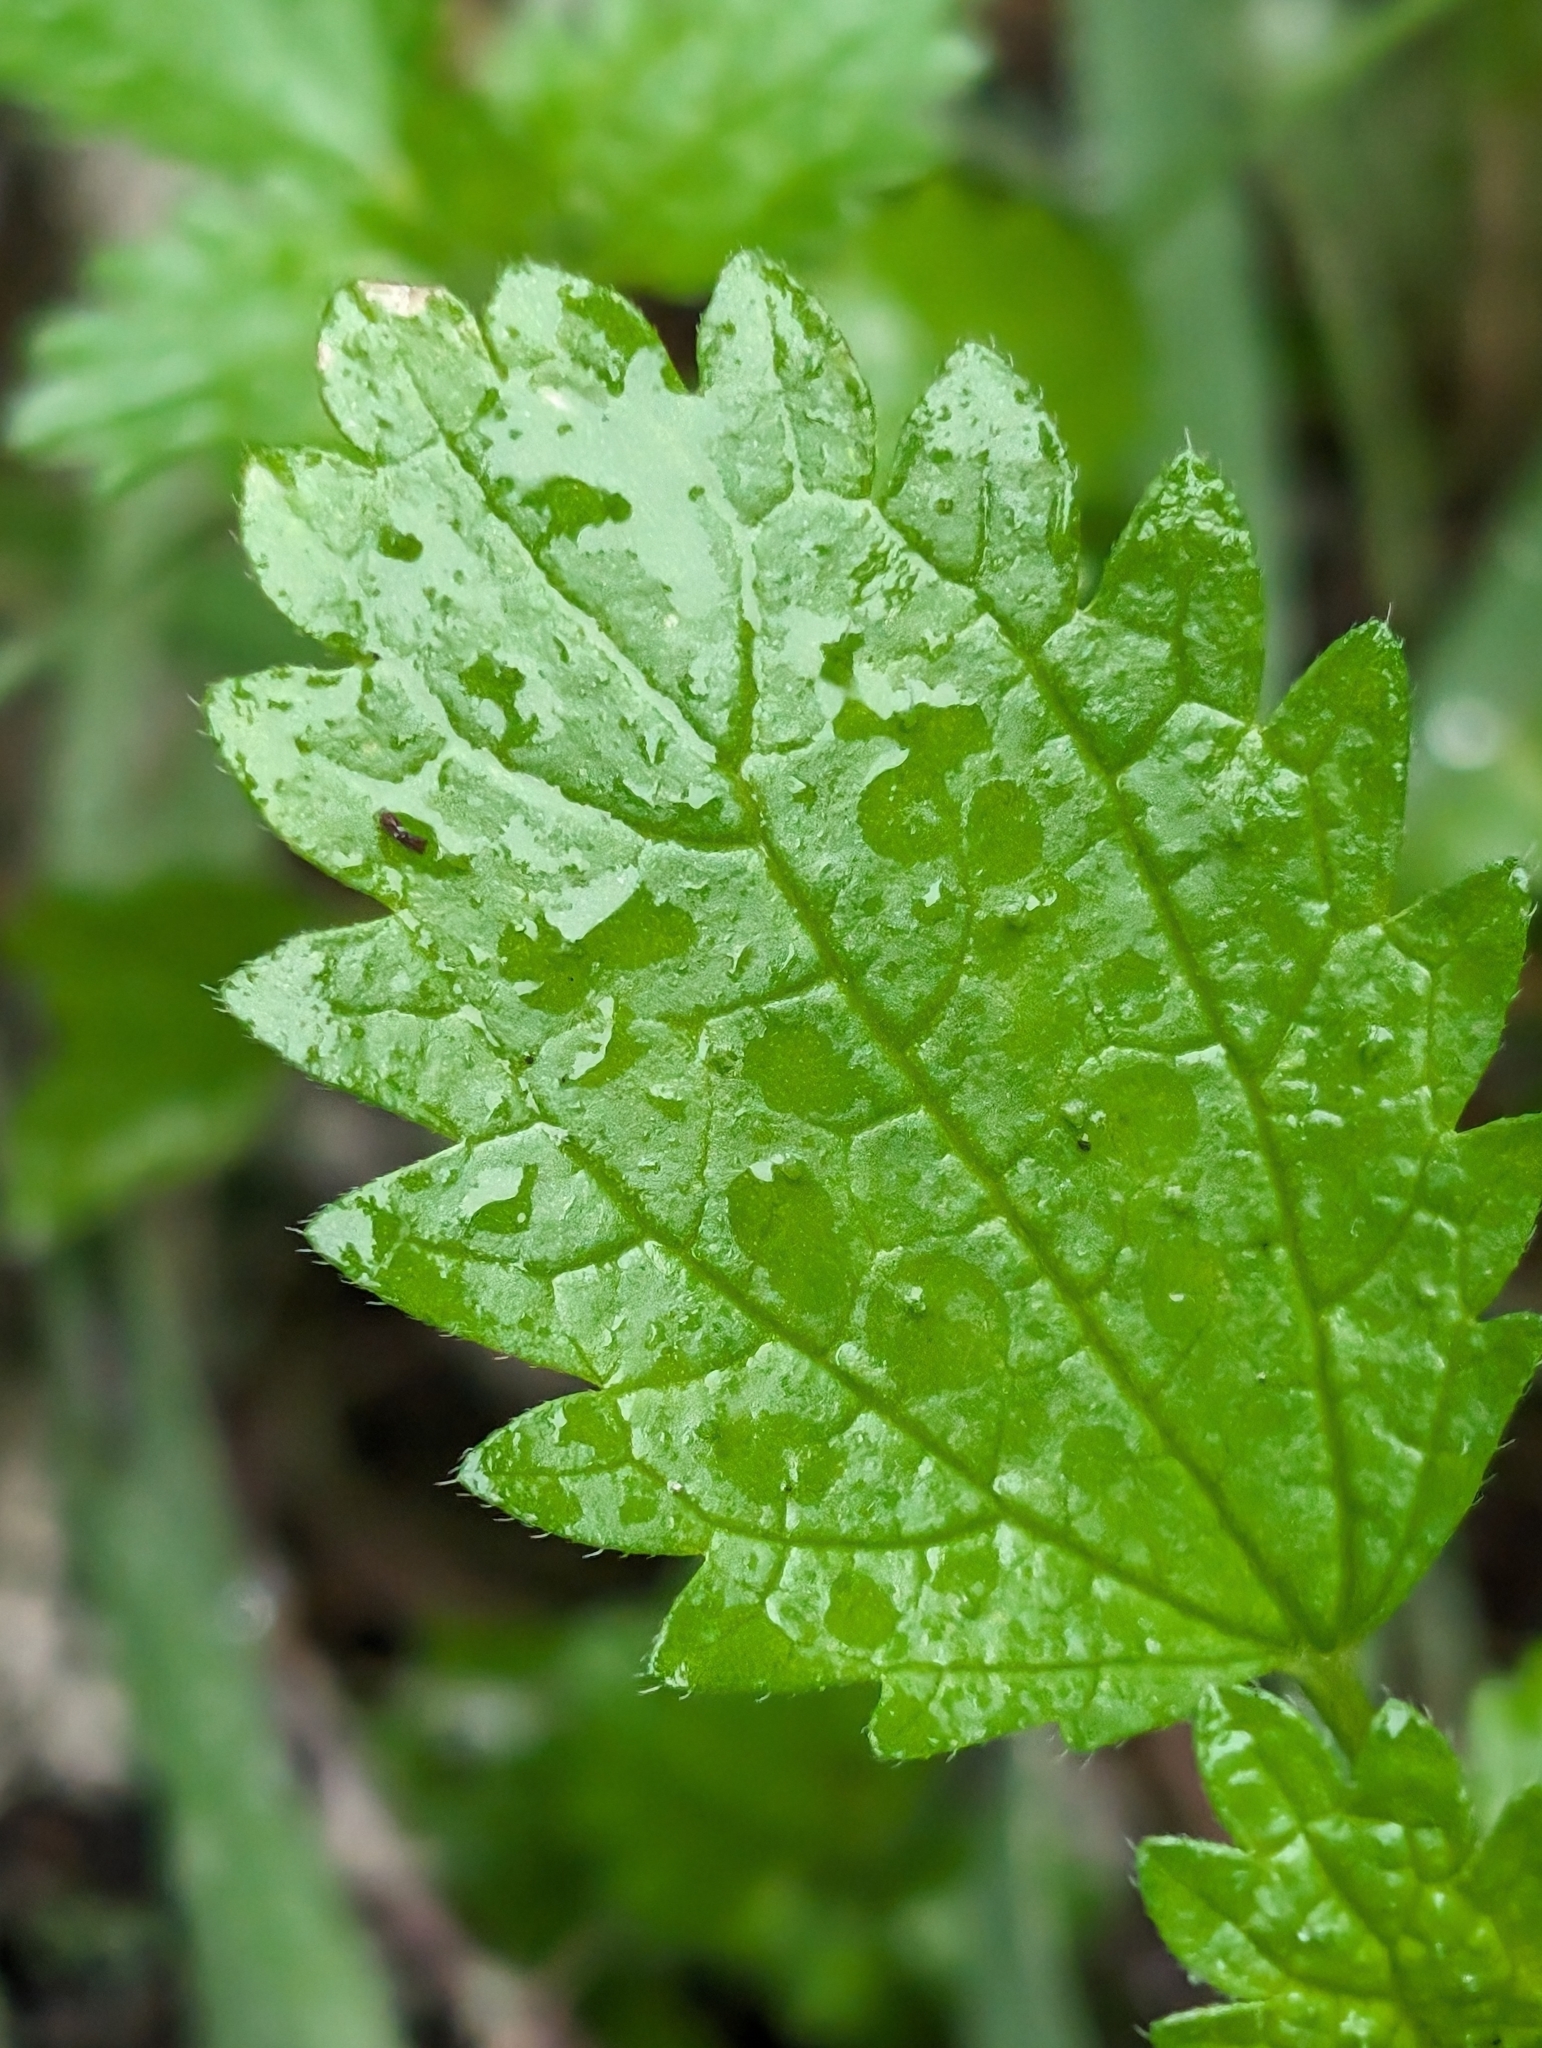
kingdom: Plantae
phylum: Tracheophyta
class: Magnoliopsida
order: Rosales
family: Urticaceae
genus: Urtica
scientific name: Urtica urens
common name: Dwarf nettle
